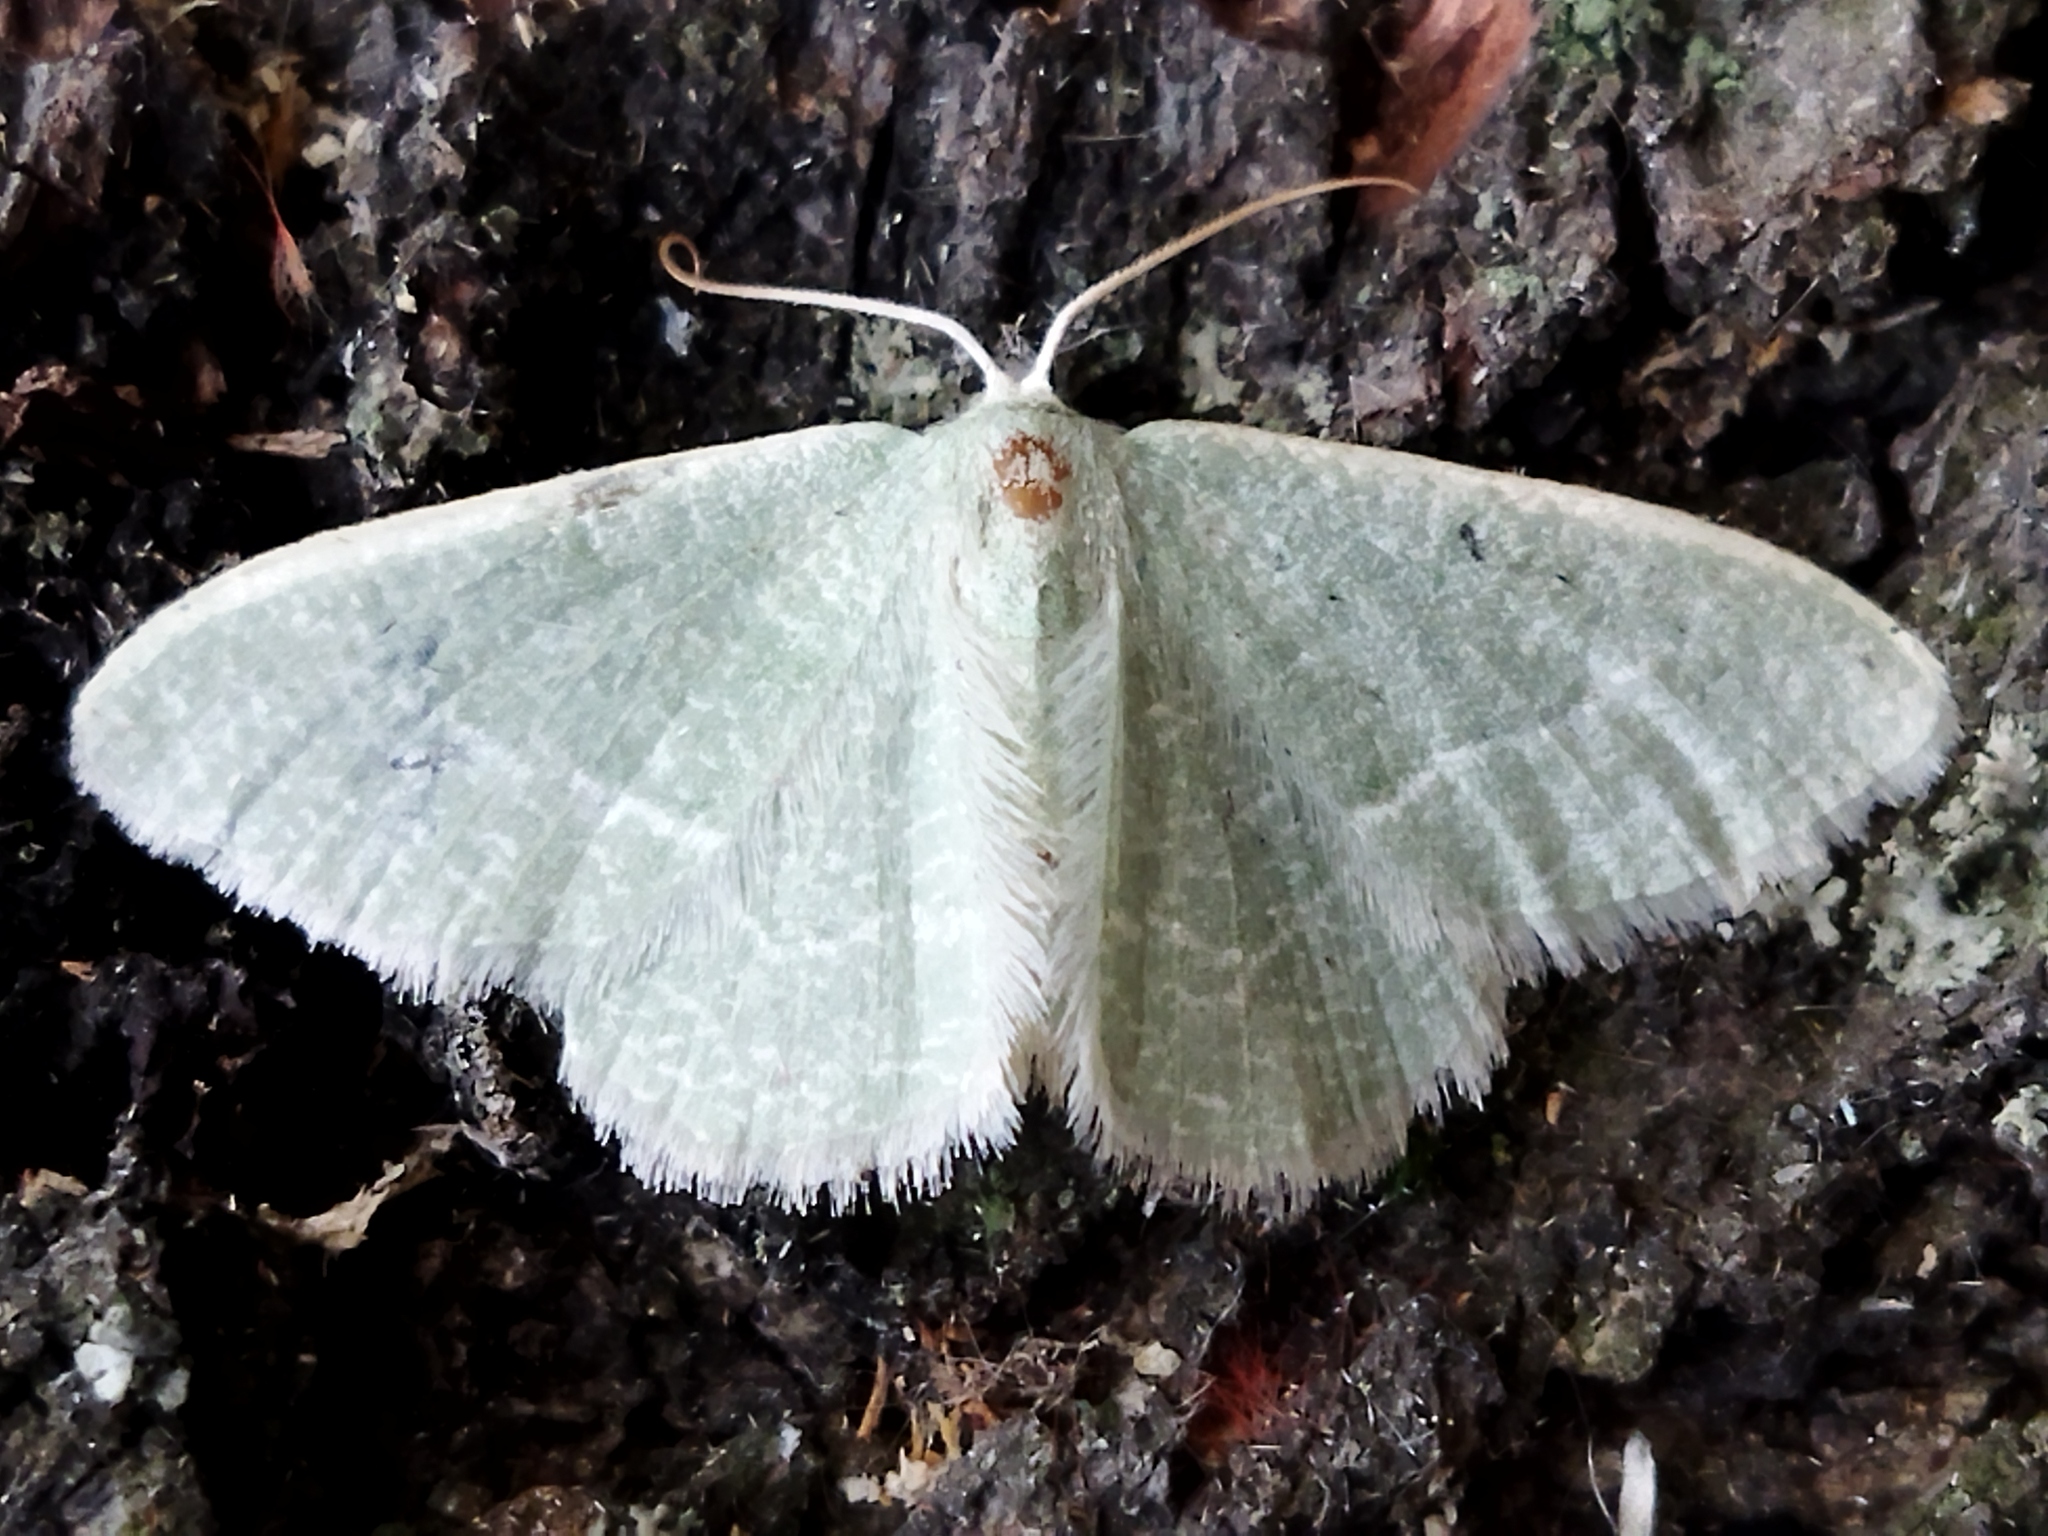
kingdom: Animalia
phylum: Arthropoda
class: Insecta
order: Lepidoptera
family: Geometridae
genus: Chlorissa
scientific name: Chlorissa etruscaria
